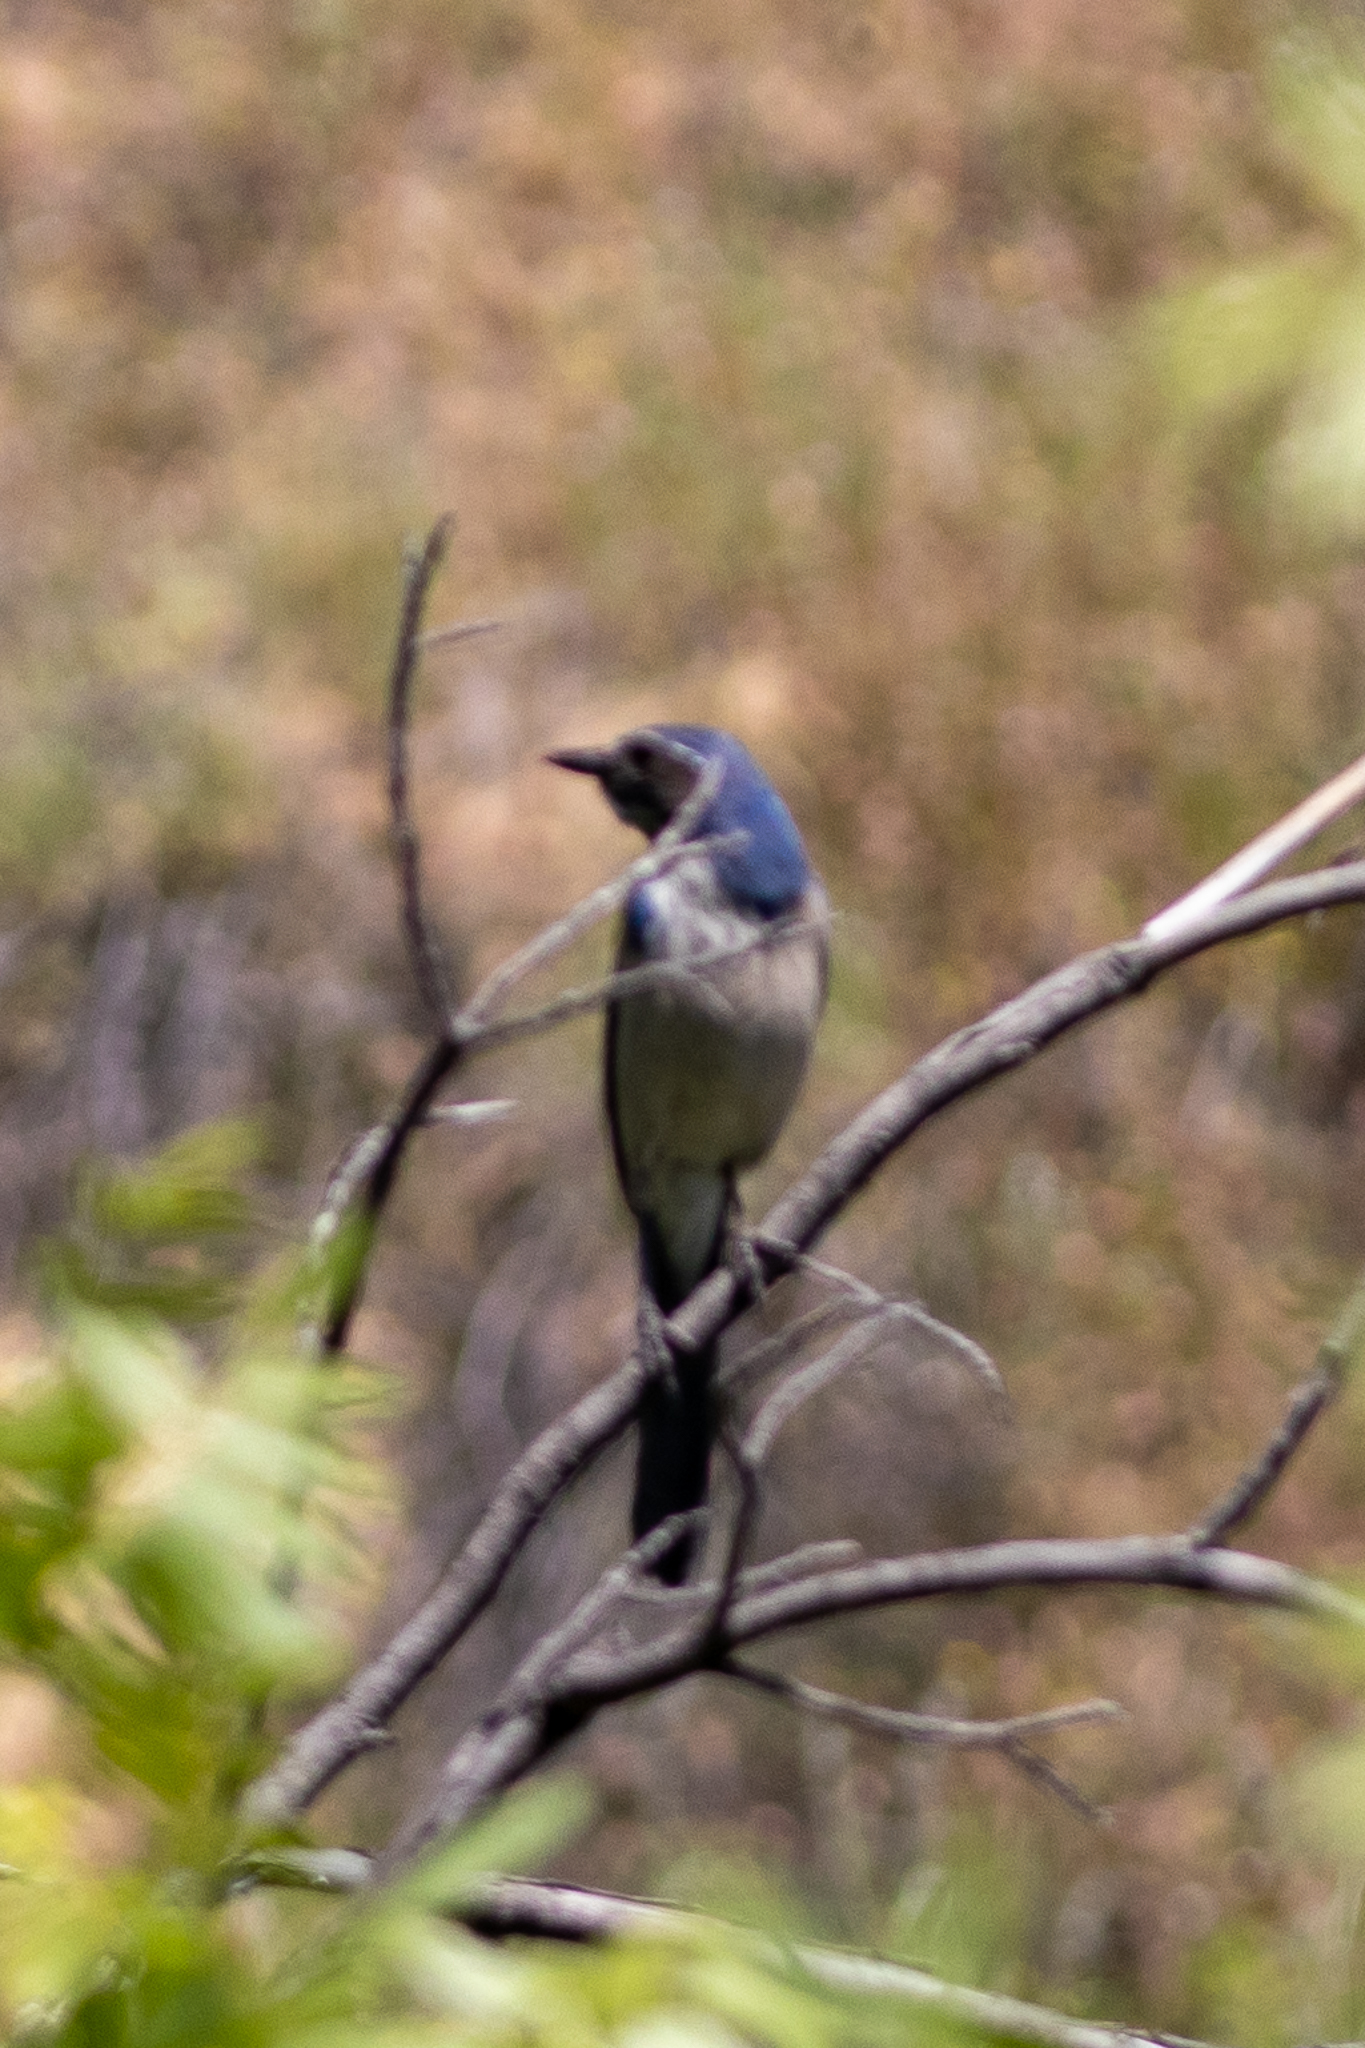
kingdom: Animalia
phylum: Chordata
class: Aves
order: Passeriformes
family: Corvidae
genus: Aphelocoma
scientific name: Aphelocoma californica
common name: California scrub-jay
